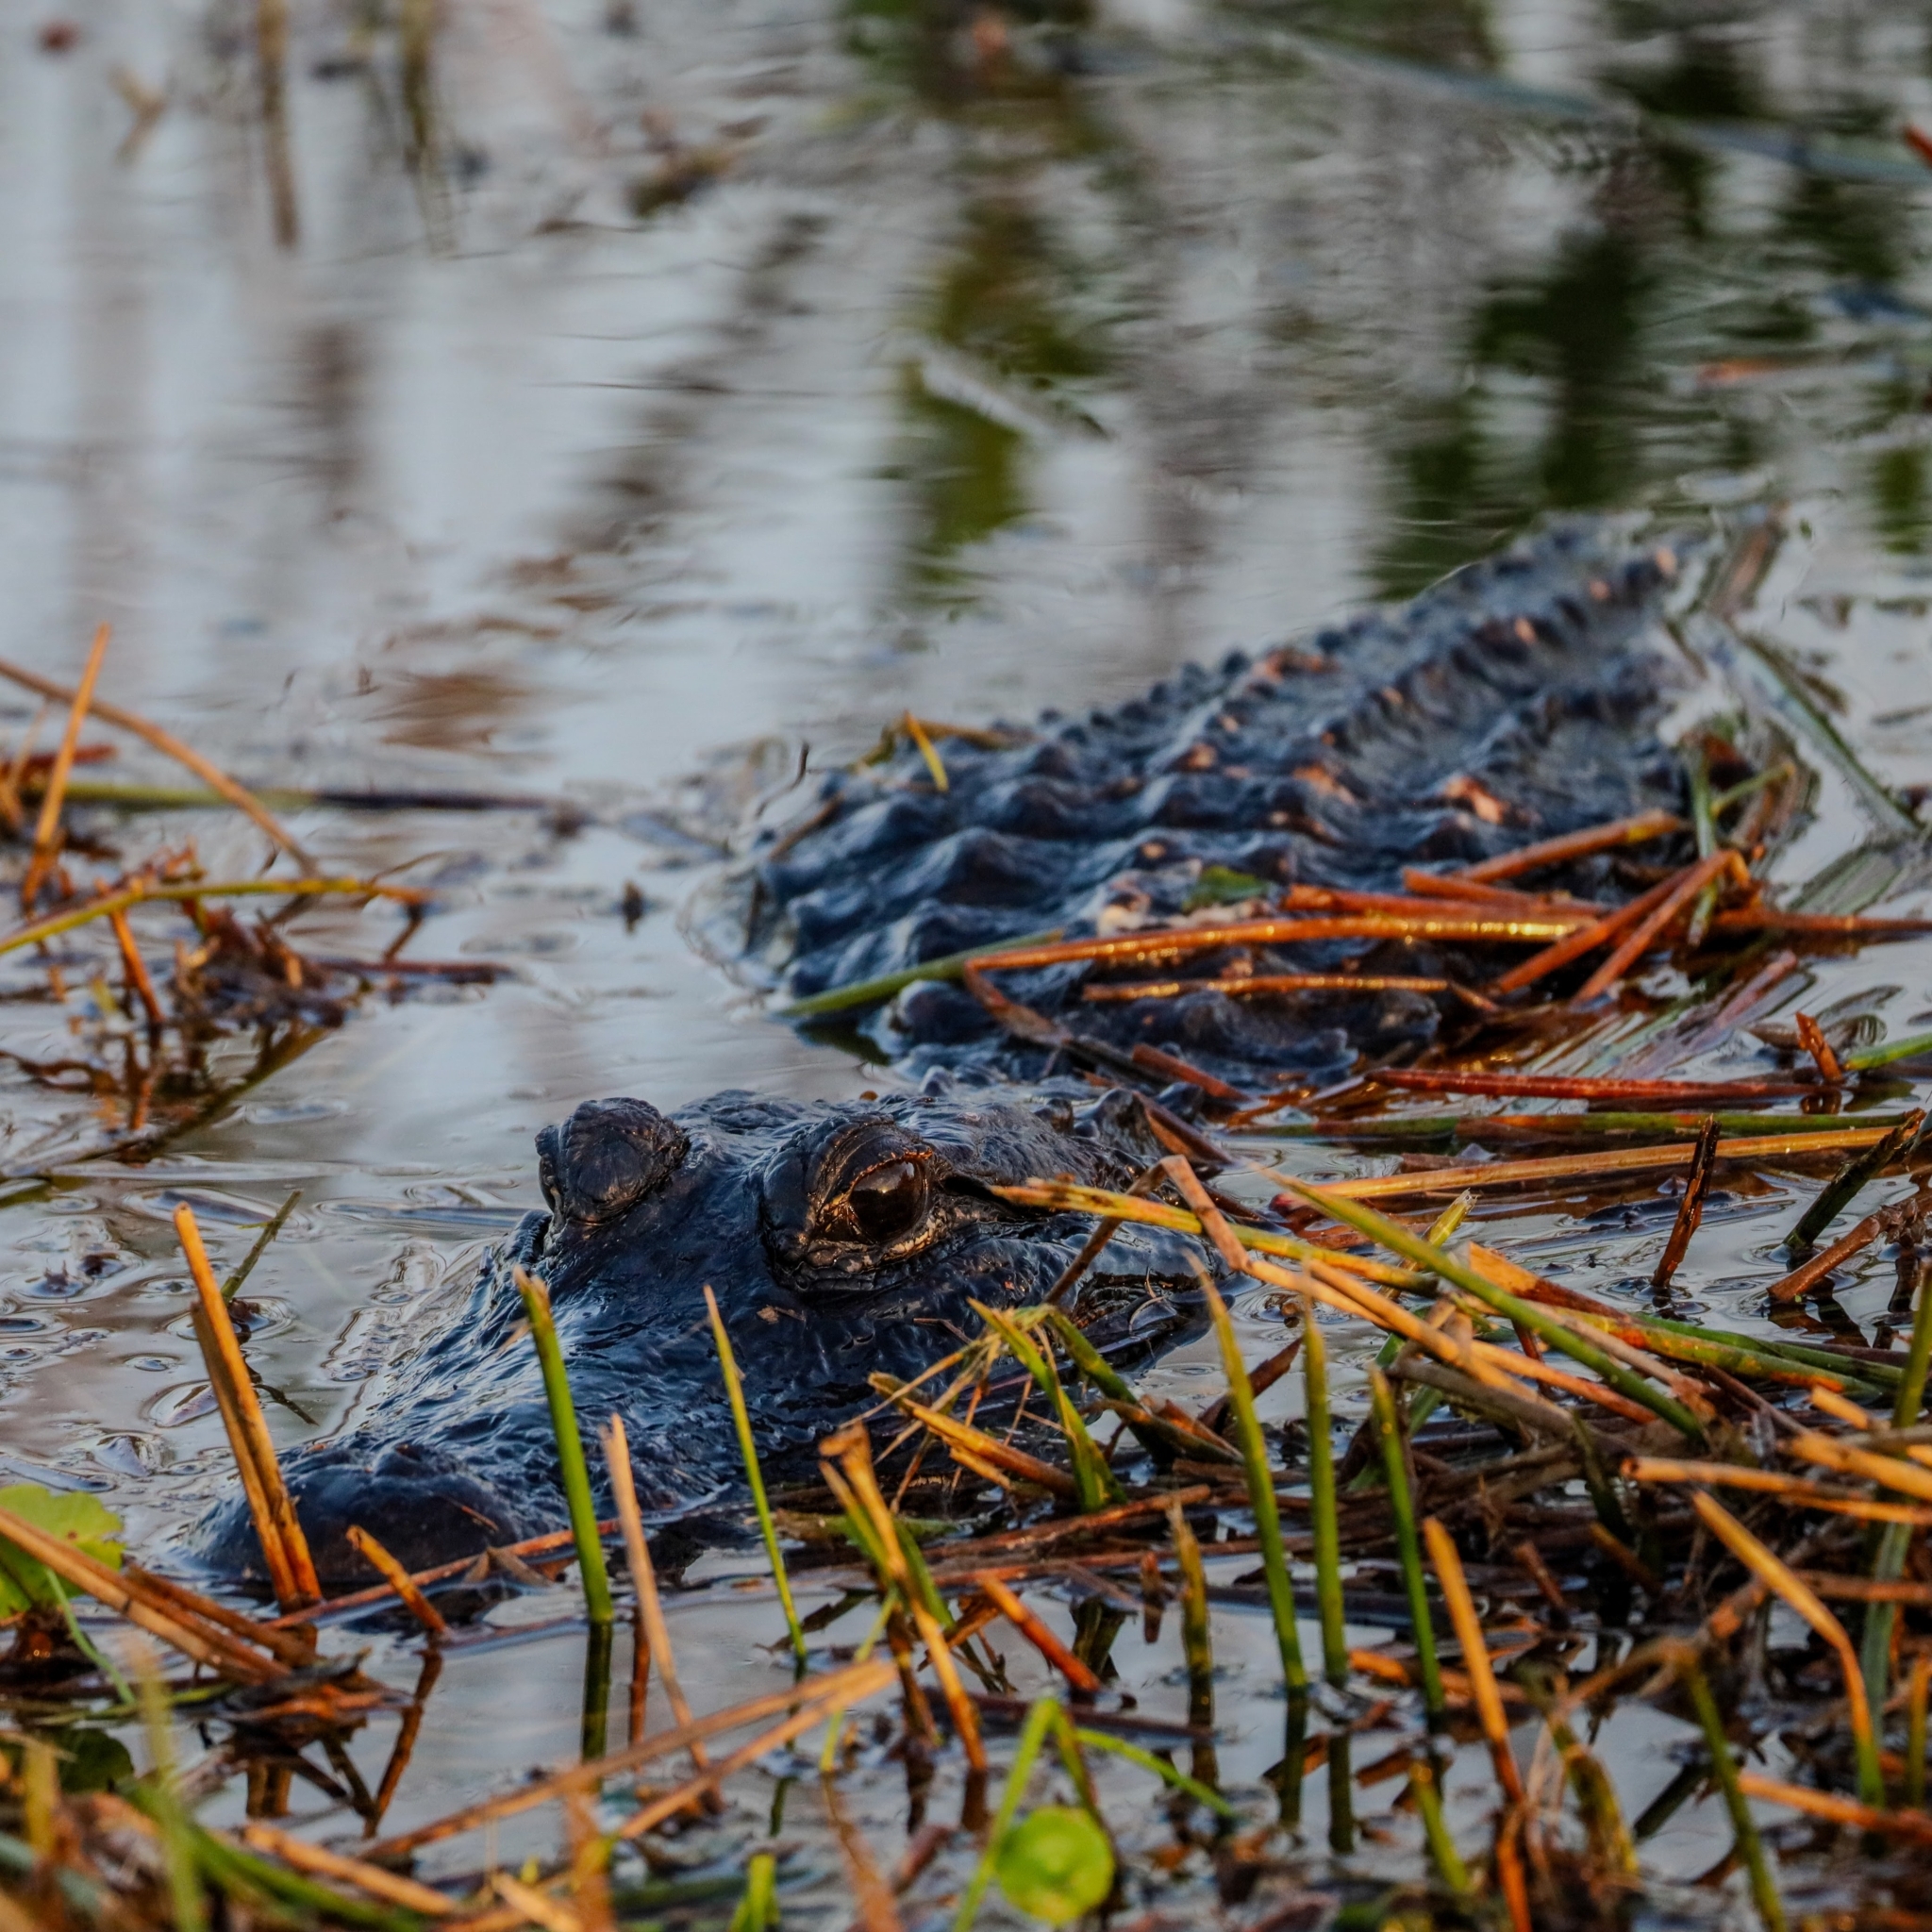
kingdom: Animalia
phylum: Chordata
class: Crocodylia
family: Alligatoridae
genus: Alligator
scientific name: Alligator mississippiensis
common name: American alligator
